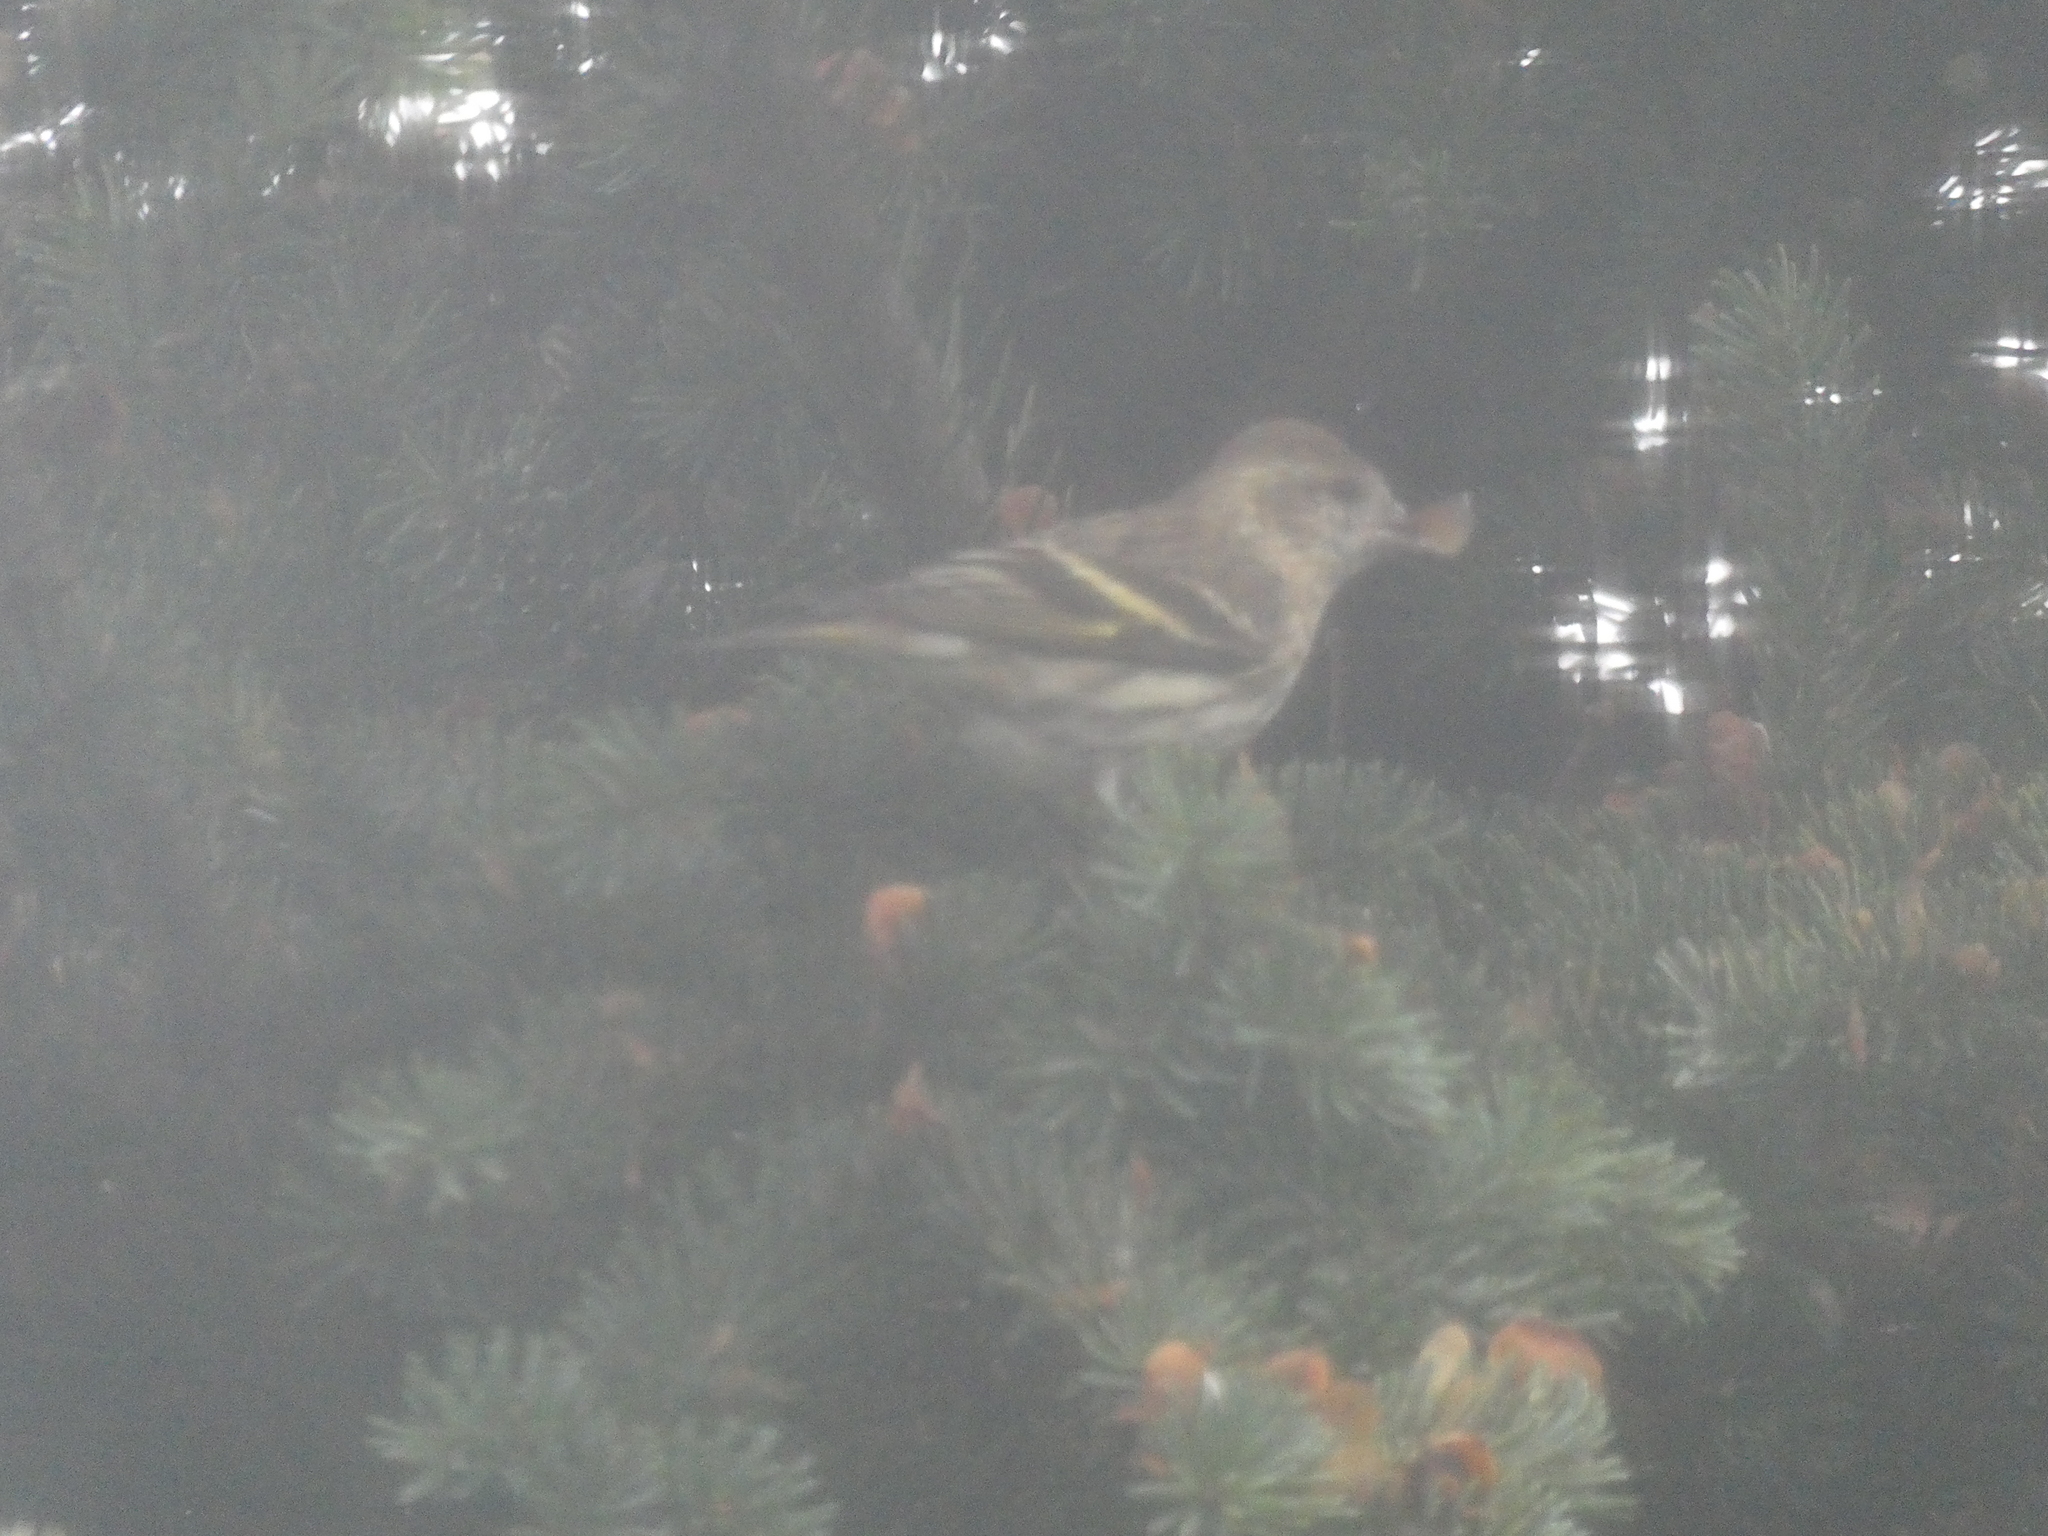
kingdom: Animalia
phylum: Chordata
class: Aves
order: Passeriformes
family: Fringillidae
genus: Spinus
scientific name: Spinus pinus
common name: Pine siskin
